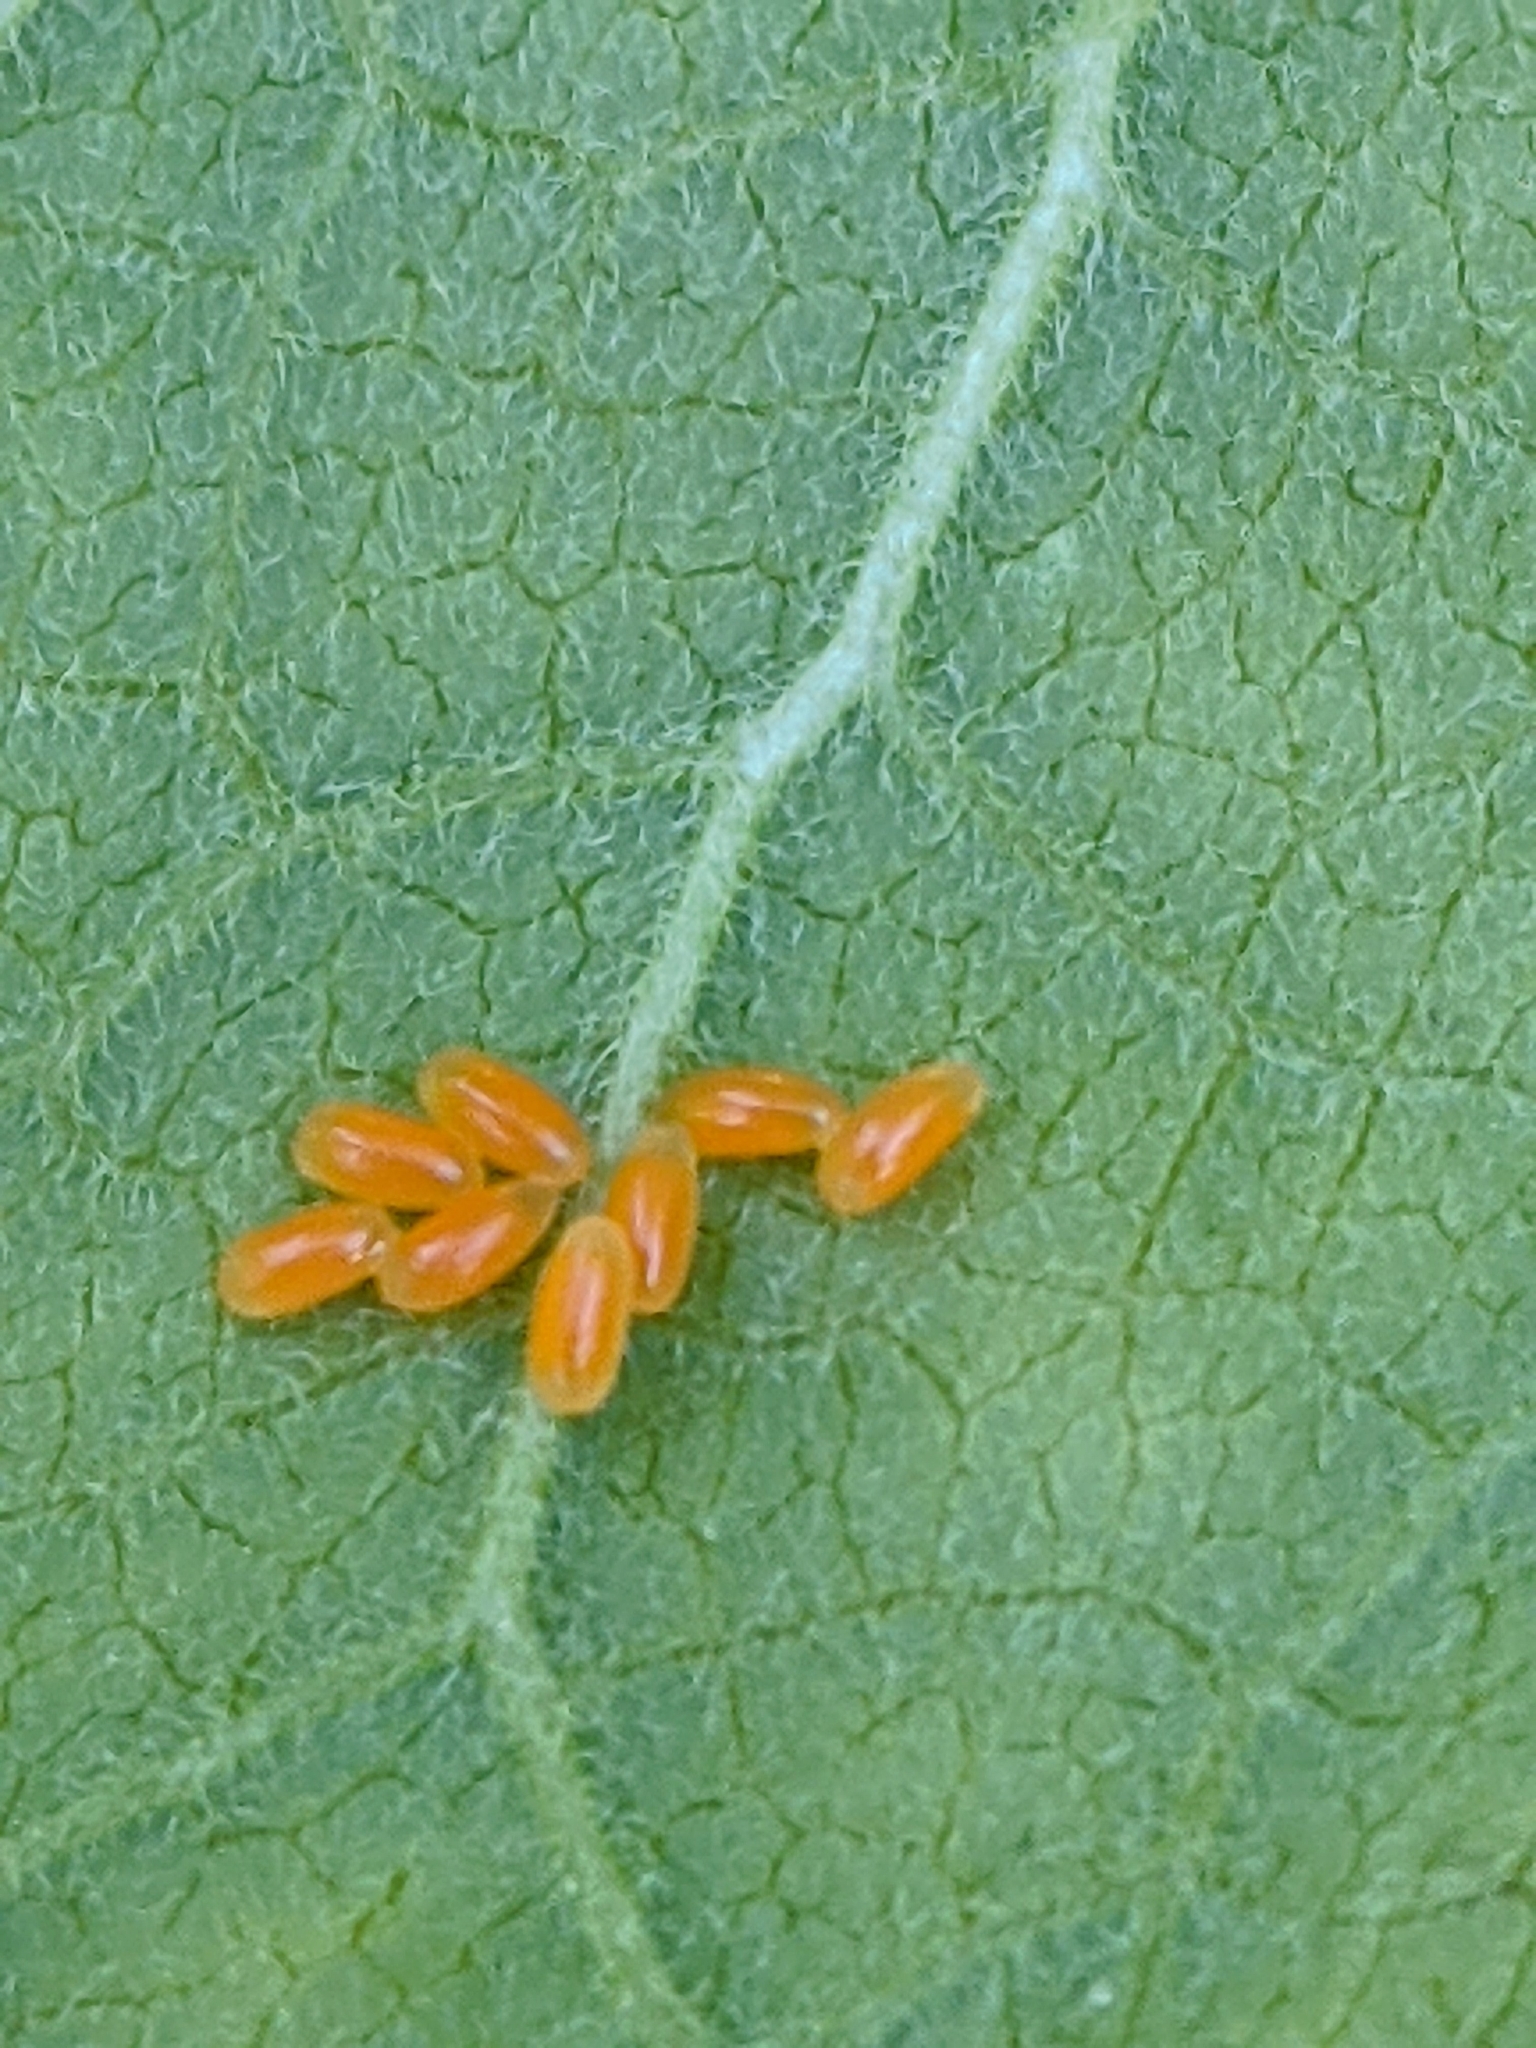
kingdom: Animalia
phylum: Arthropoda
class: Insecta
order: Coleoptera
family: Chrysomelidae
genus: Labidomera
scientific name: Labidomera clivicollis
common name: Swamp milkweed leaf beetle
